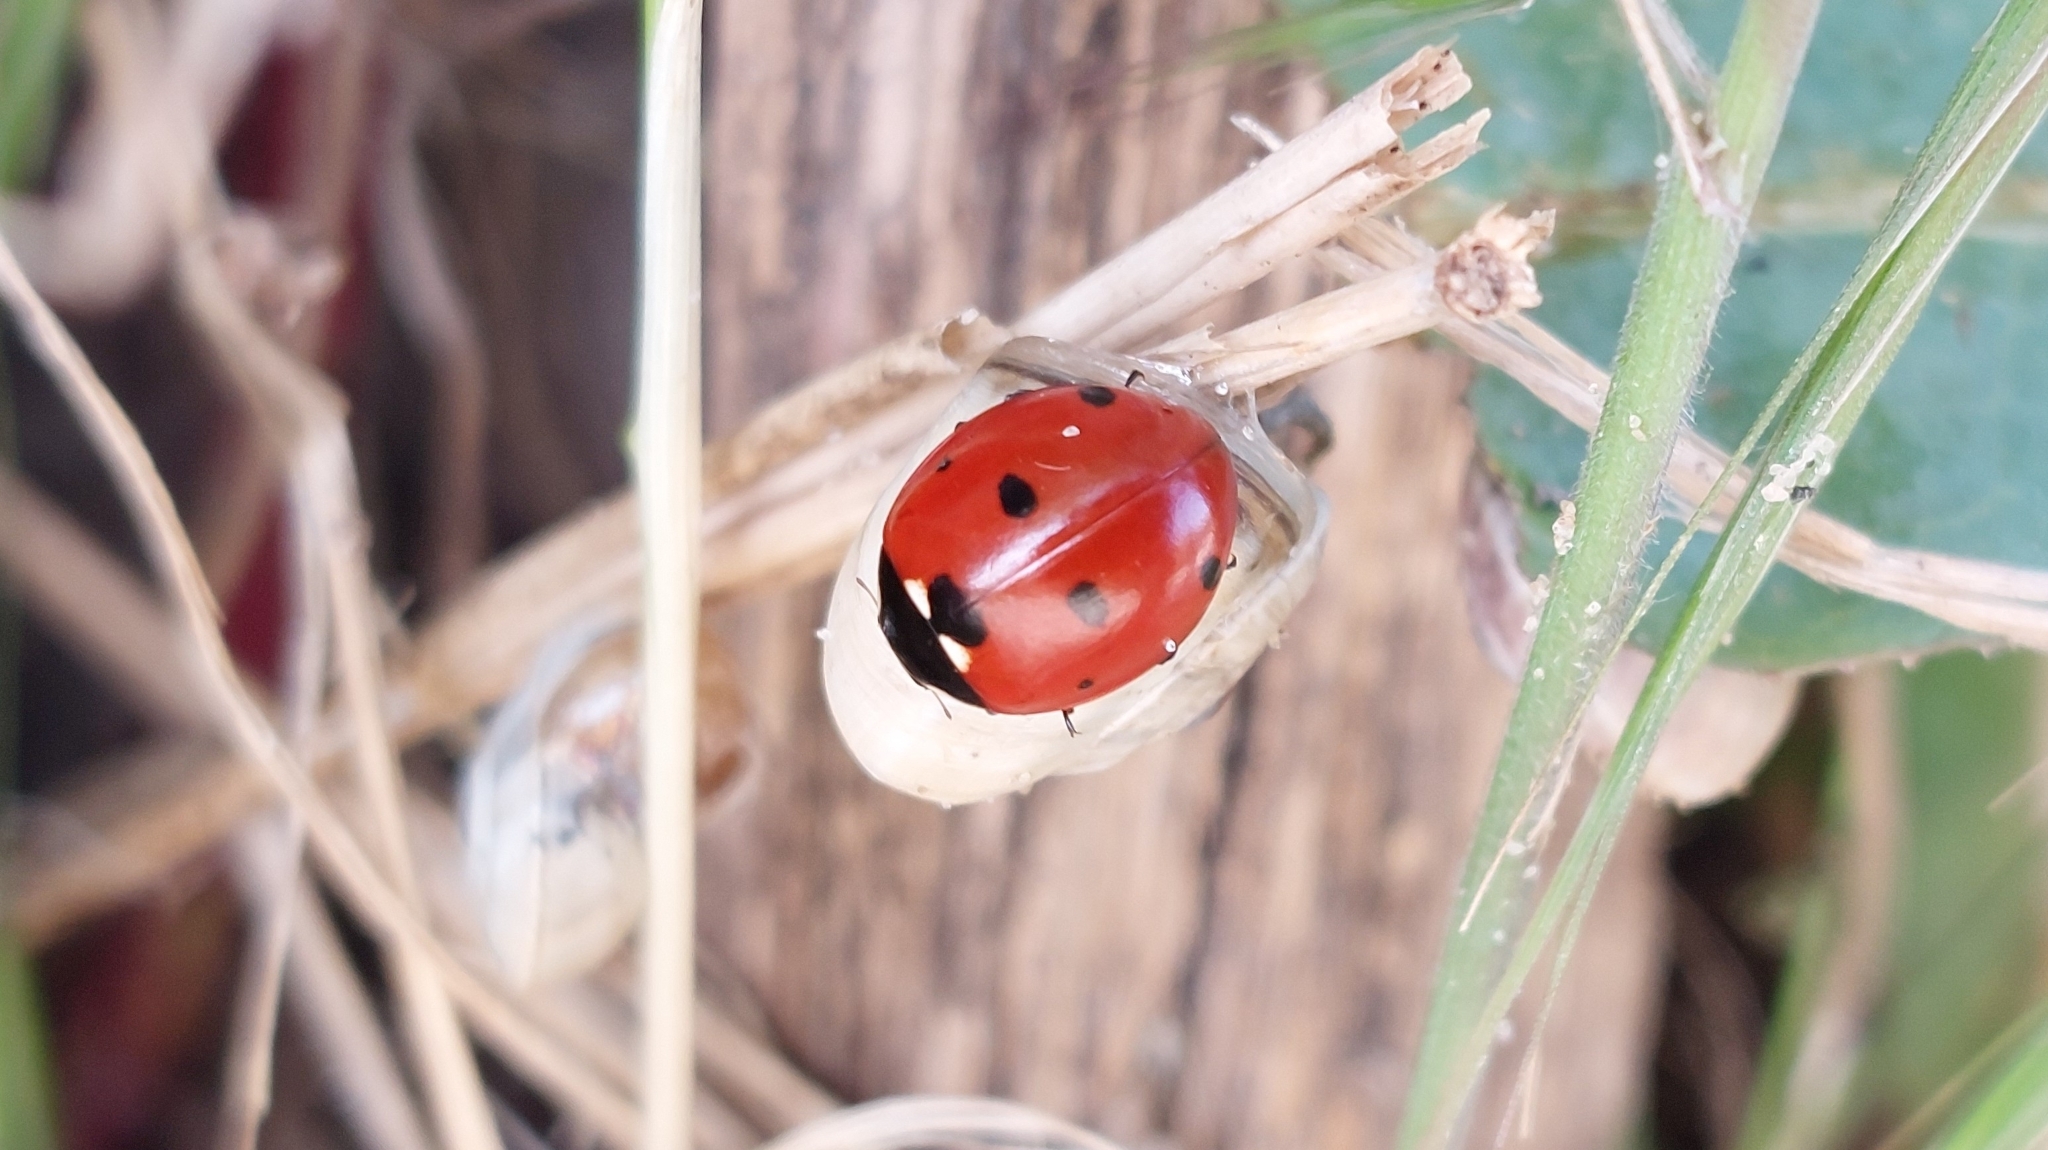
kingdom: Animalia
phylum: Arthropoda
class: Insecta
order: Coleoptera
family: Coccinellidae
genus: Coccinella
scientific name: Coccinella septempunctata
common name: Sevenspotted lady beetle
